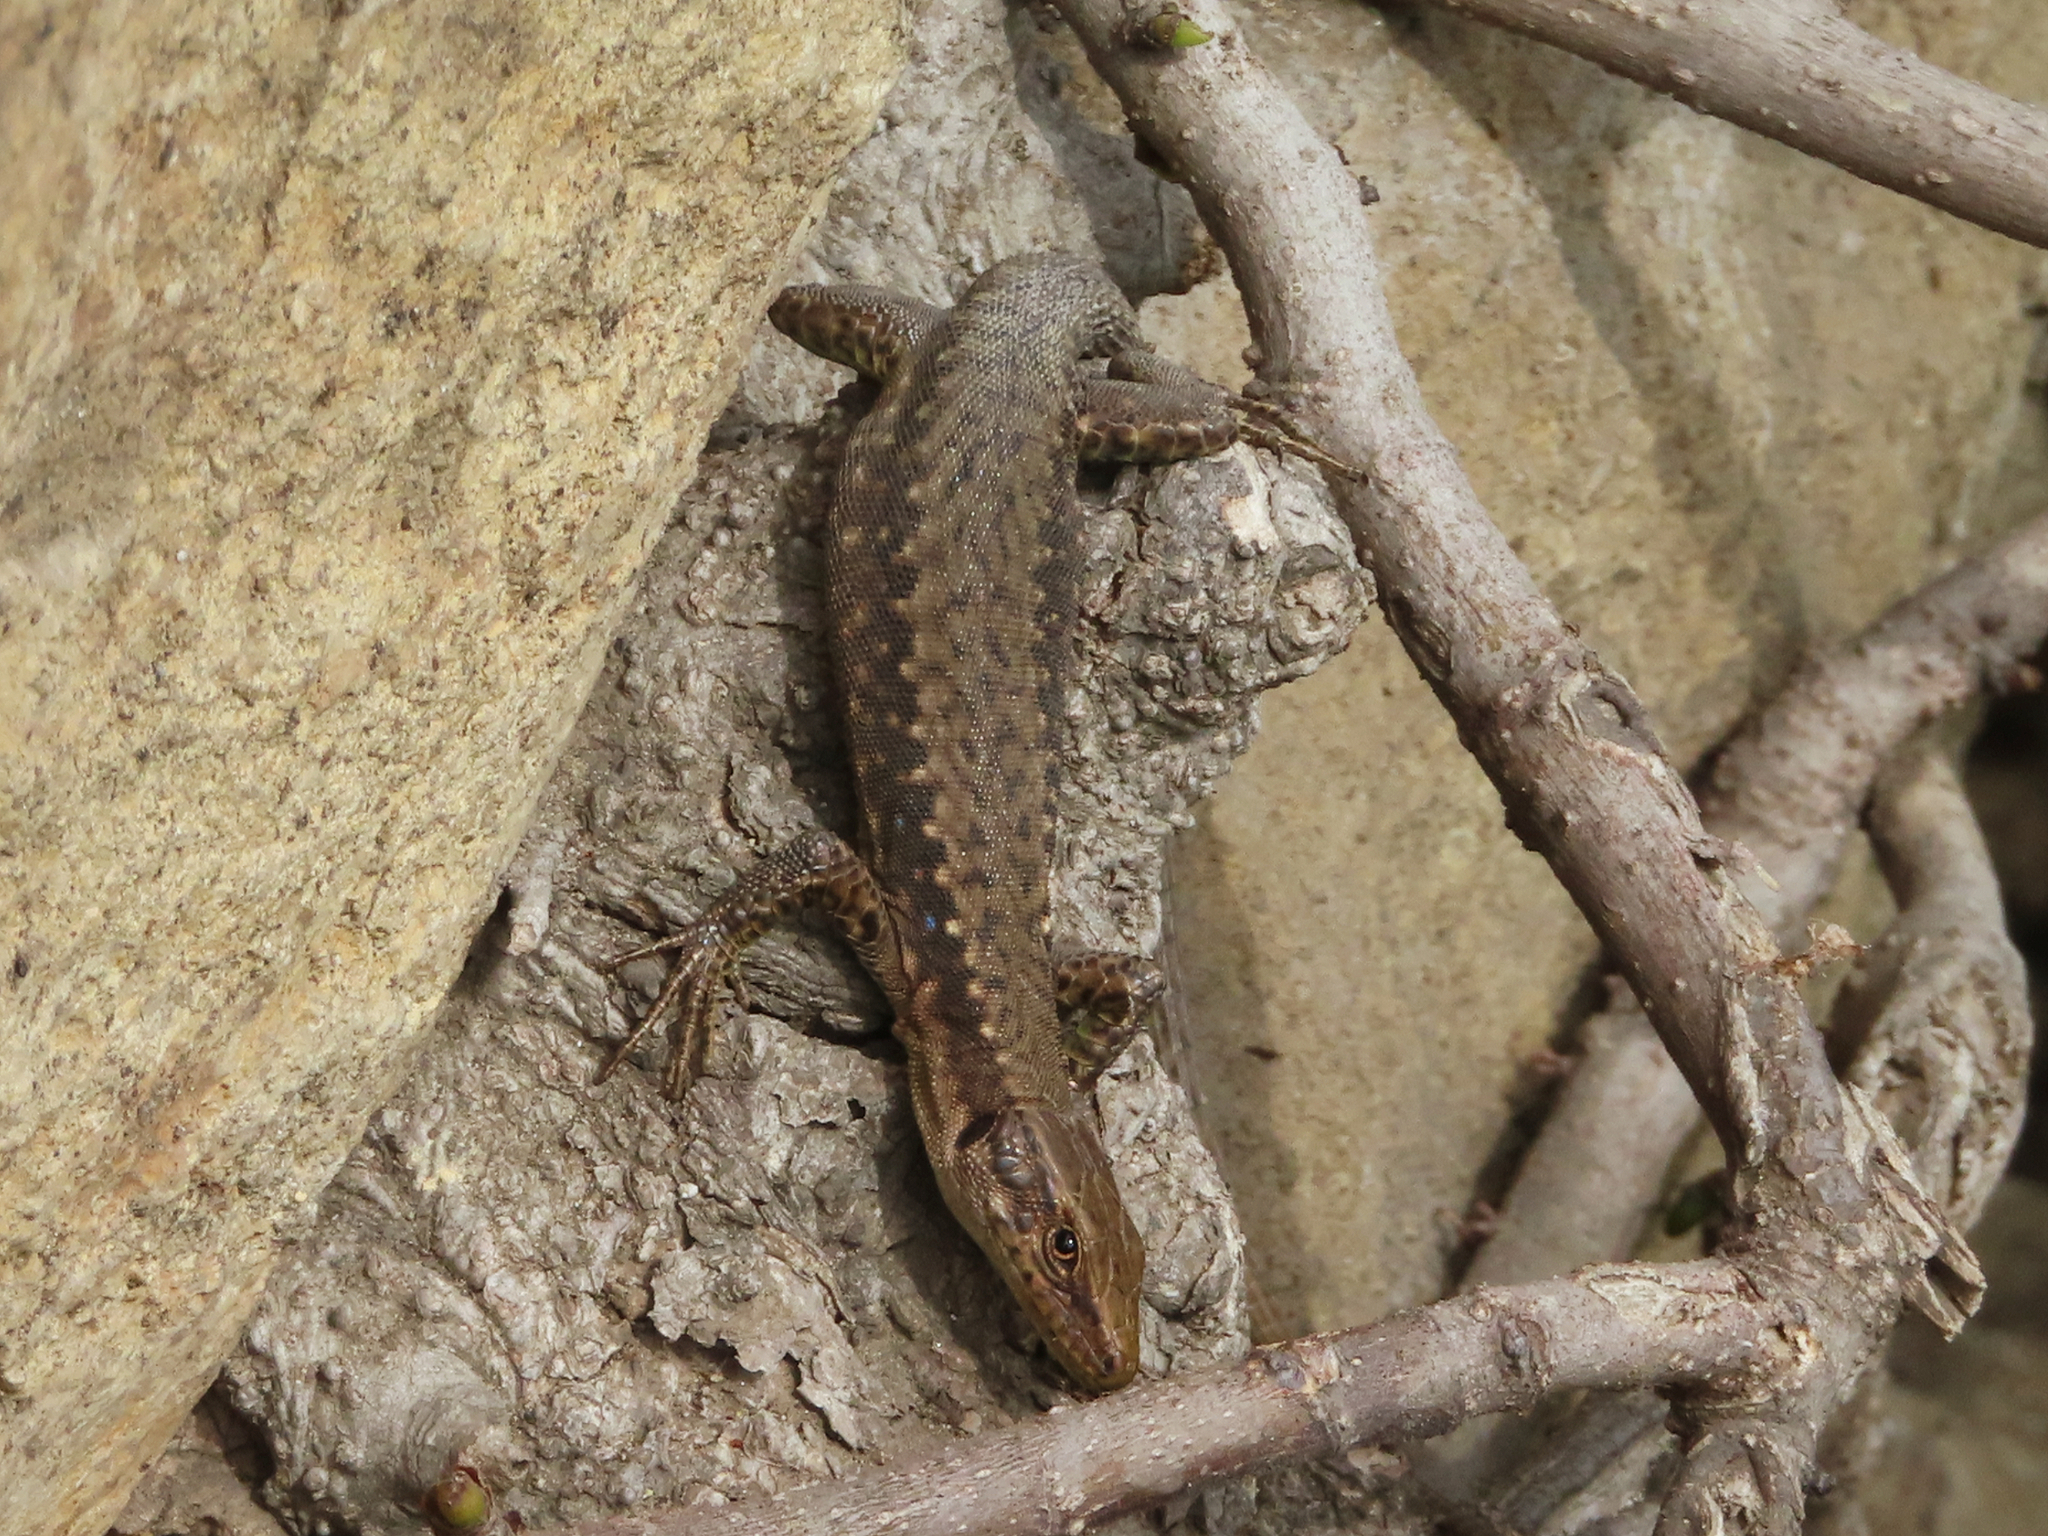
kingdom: Animalia
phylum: Chordata
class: Squamata
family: Lacertidae
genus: Darevskia
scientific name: Darevskia mixta
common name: Ajarian lizard
